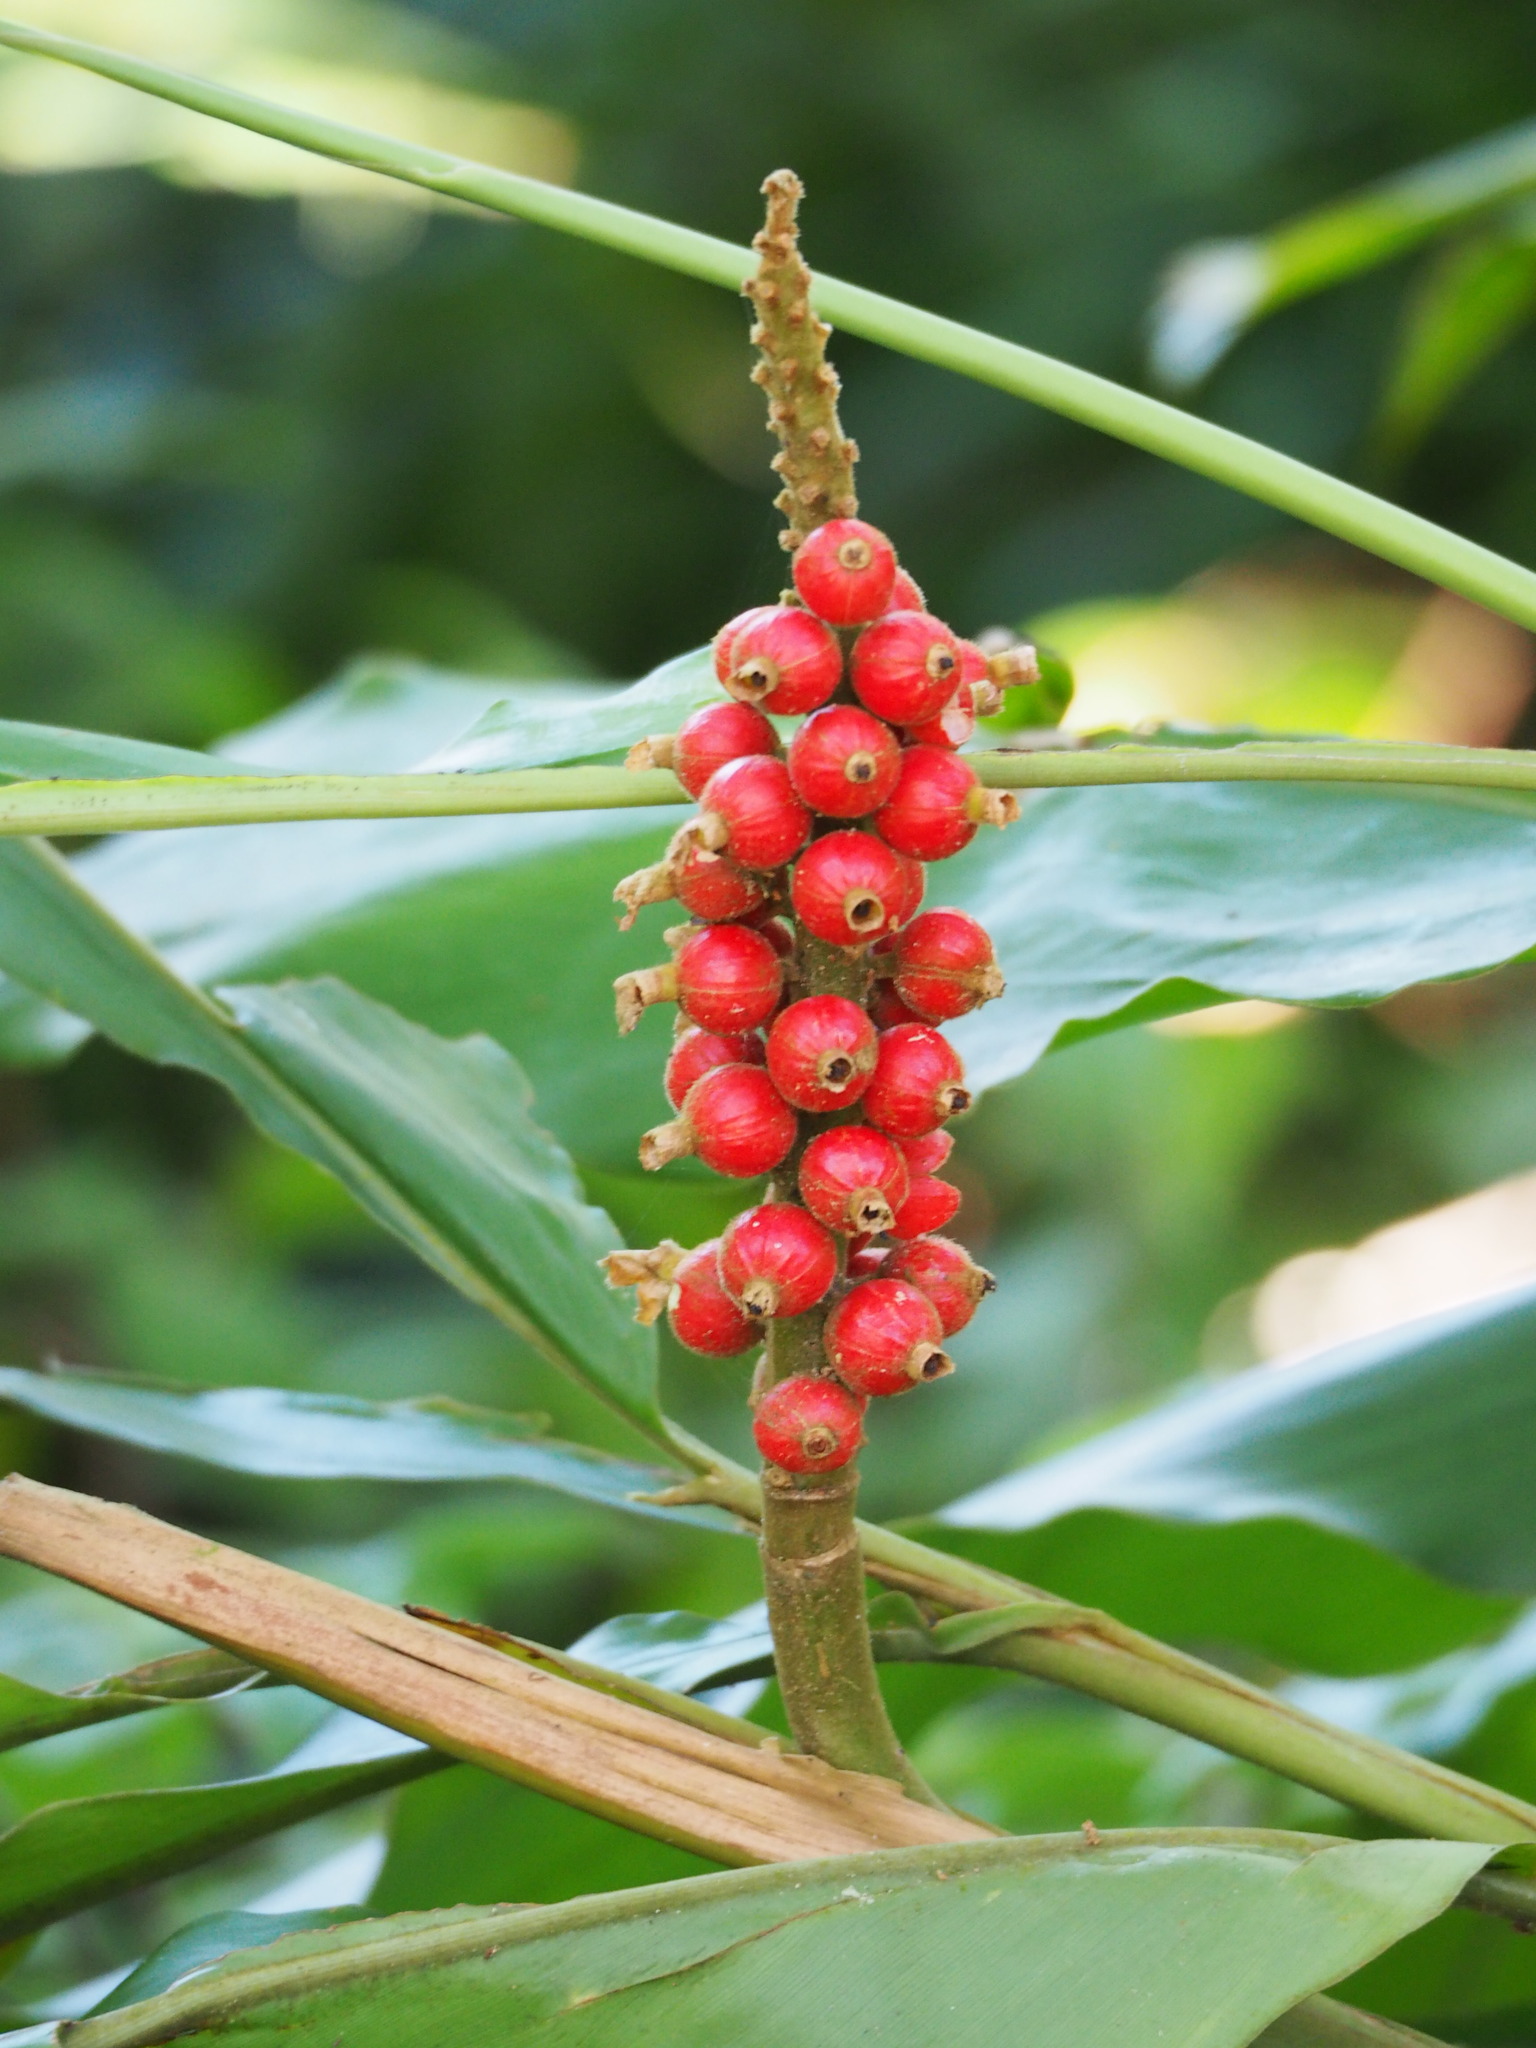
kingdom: Plantae
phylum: Tracheophyta
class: Liliopsida
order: Zingiberales
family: Zingiberaceae
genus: Alpinia
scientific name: Alpinia pricei
